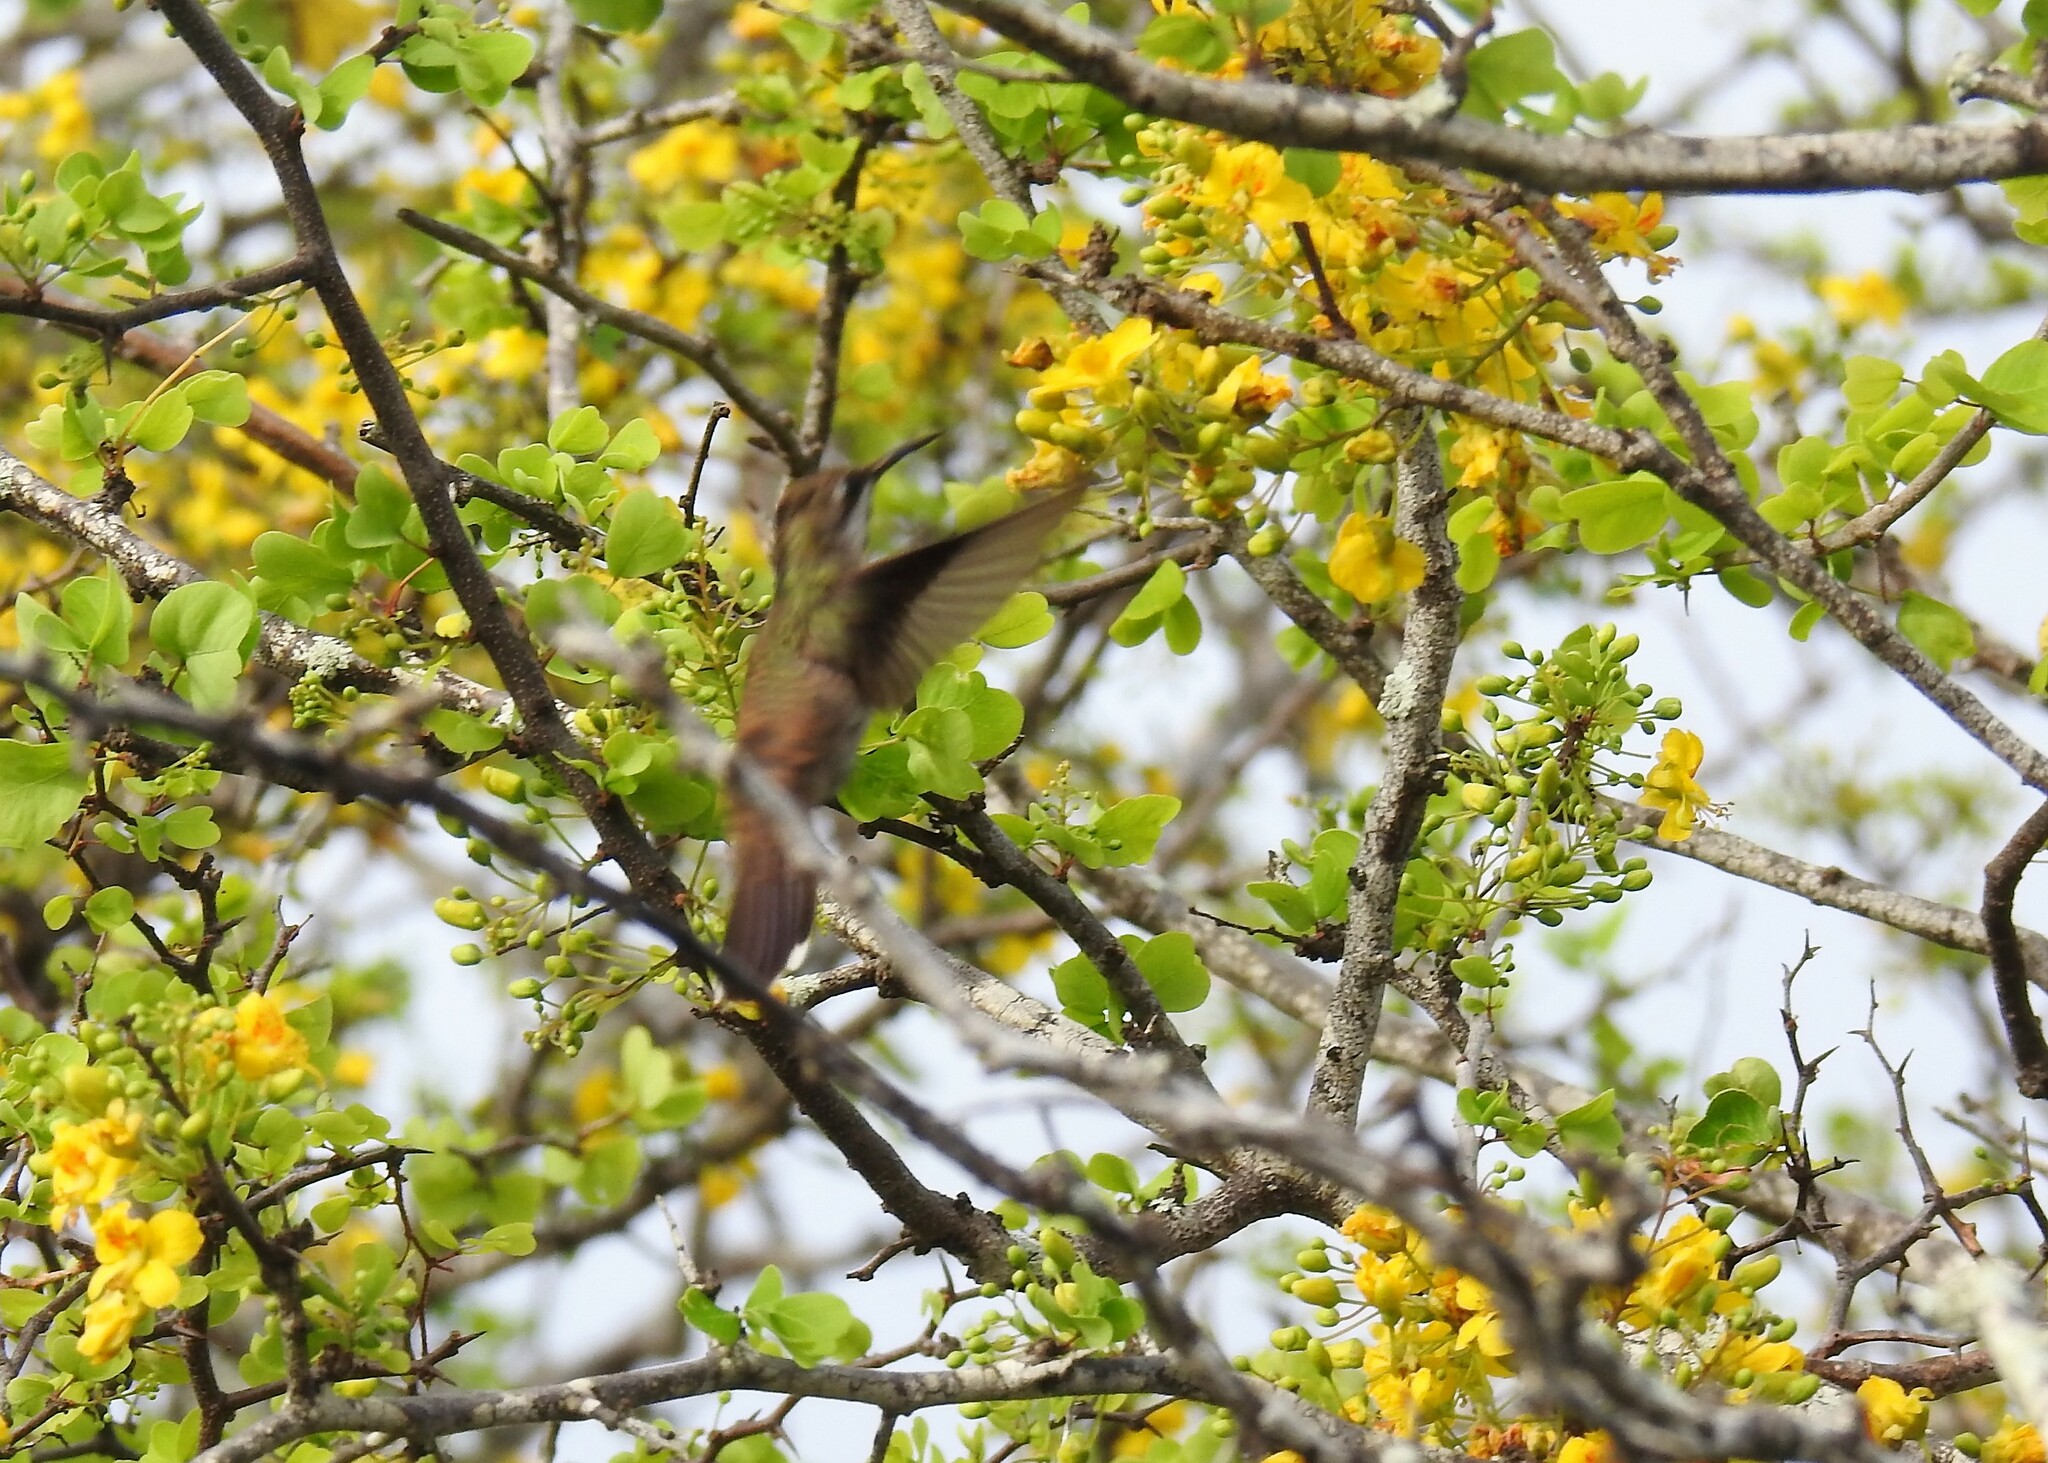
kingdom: Animalia
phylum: Chordata
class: Aves
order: Apodiformes
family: Trochilidae
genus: Chrysolampis
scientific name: Chrysolampis mosquitus
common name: Ruby-topaz hummingbird
